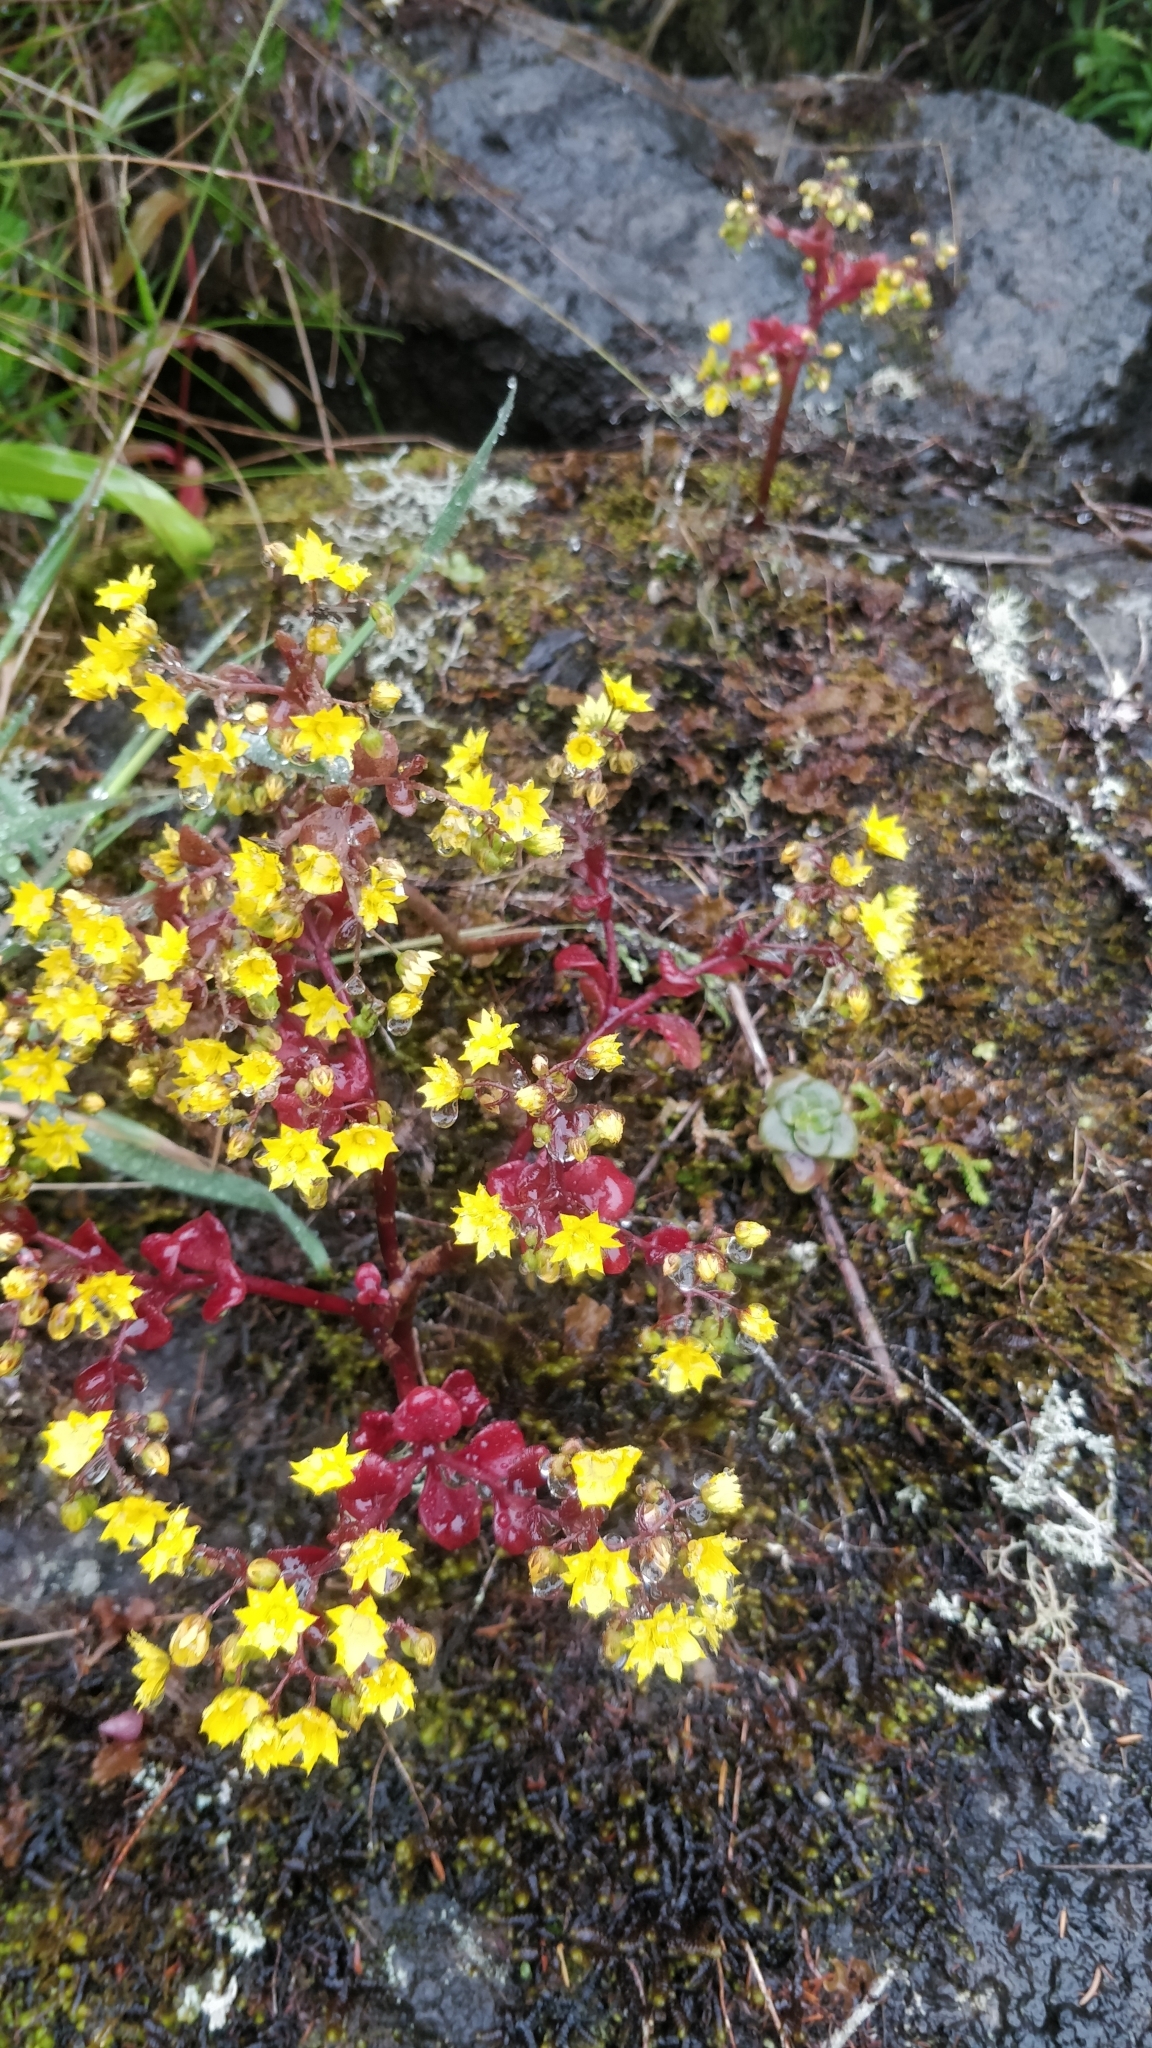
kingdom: Plantae
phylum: Tracheophyta
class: Magnoliopsida
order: Saxifragales
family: Crassulaceae
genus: Aichryson
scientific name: Aichryson divaricatum
